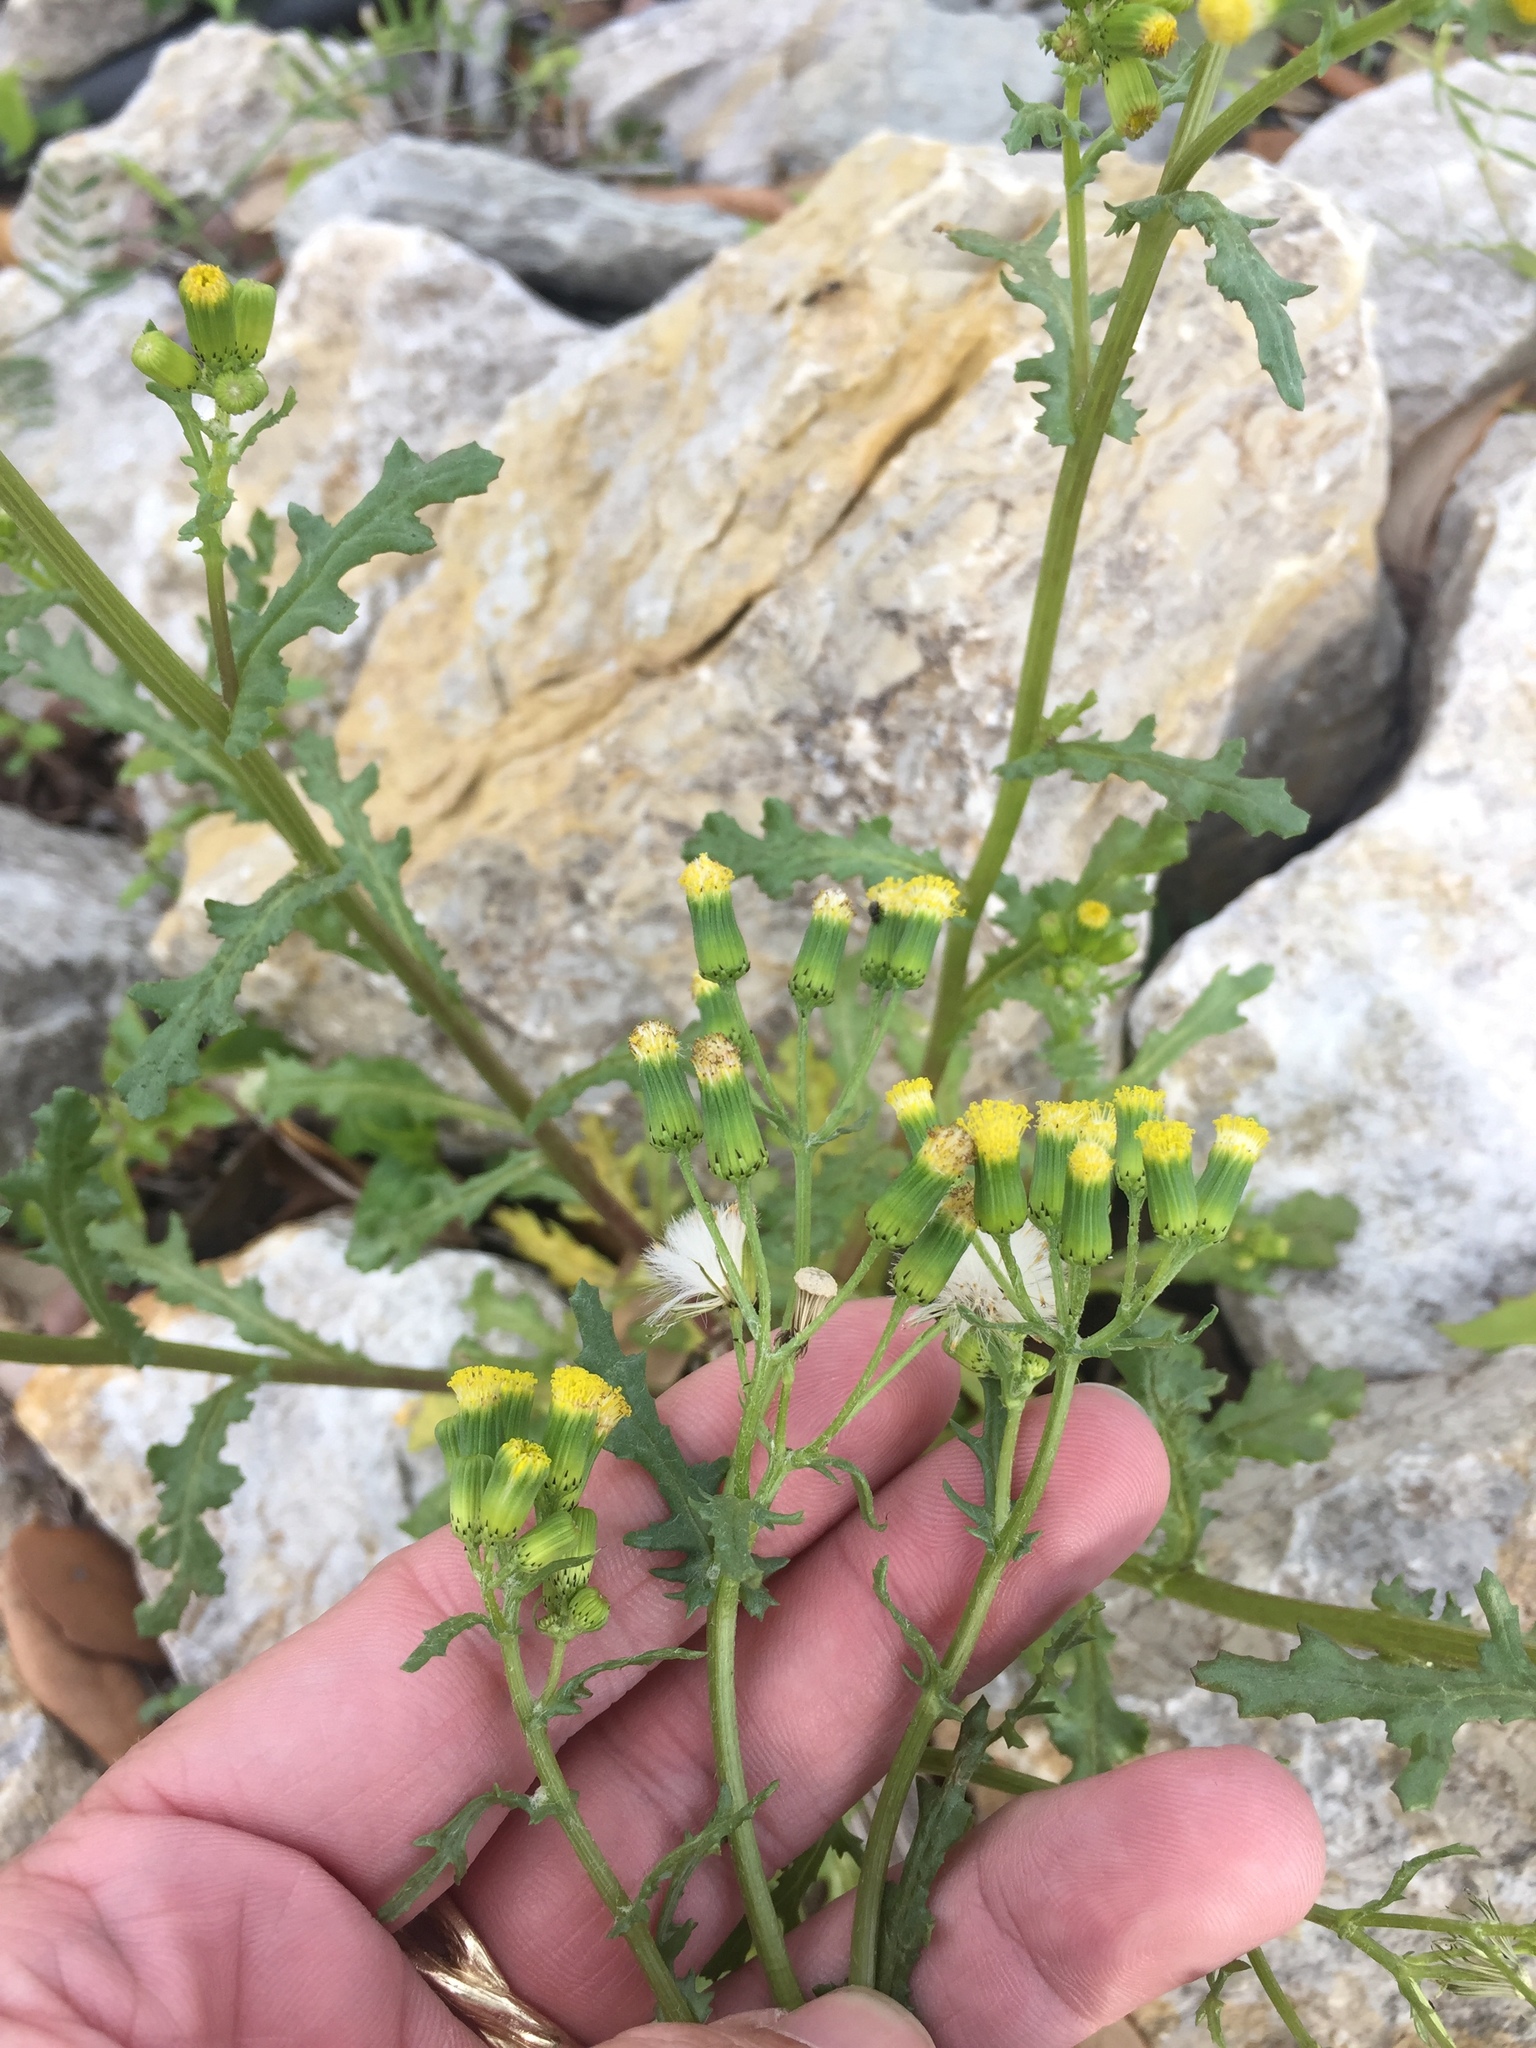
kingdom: Plantae
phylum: Tracheophyta
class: Magnoliopsida
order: Asterales
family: Asteraceae
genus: Senecio
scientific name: Senecio vulgaris
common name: Old-man-in-the-spring
